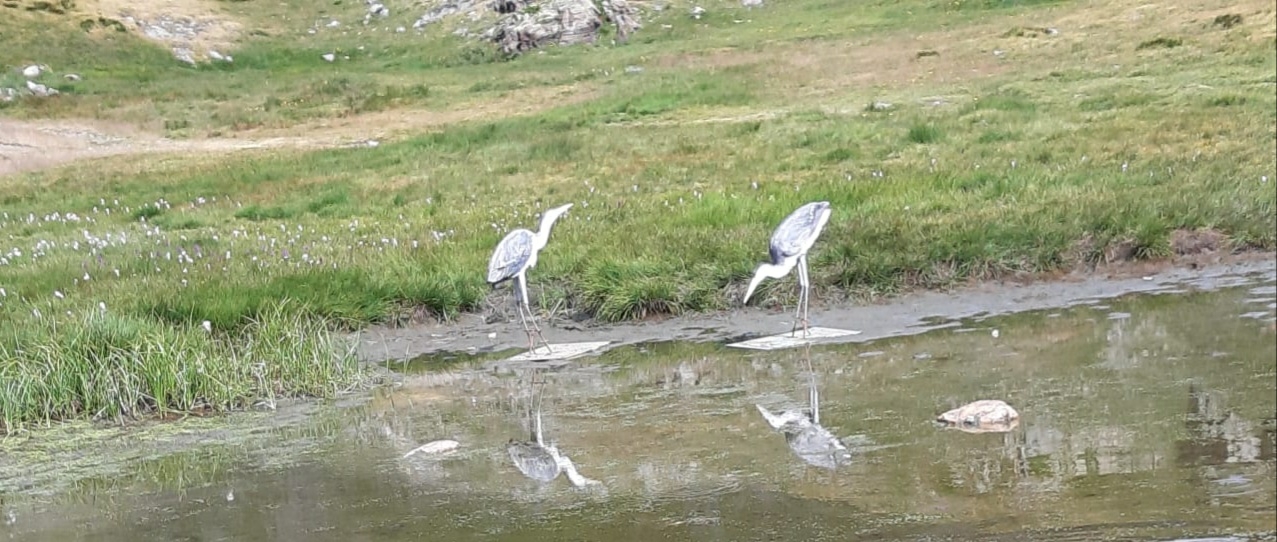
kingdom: Animalia
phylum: Chordata
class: Aves
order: Pelecaniformes
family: Ardeidae
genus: Ardea
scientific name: Ardea cinerea
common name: Grey heron
